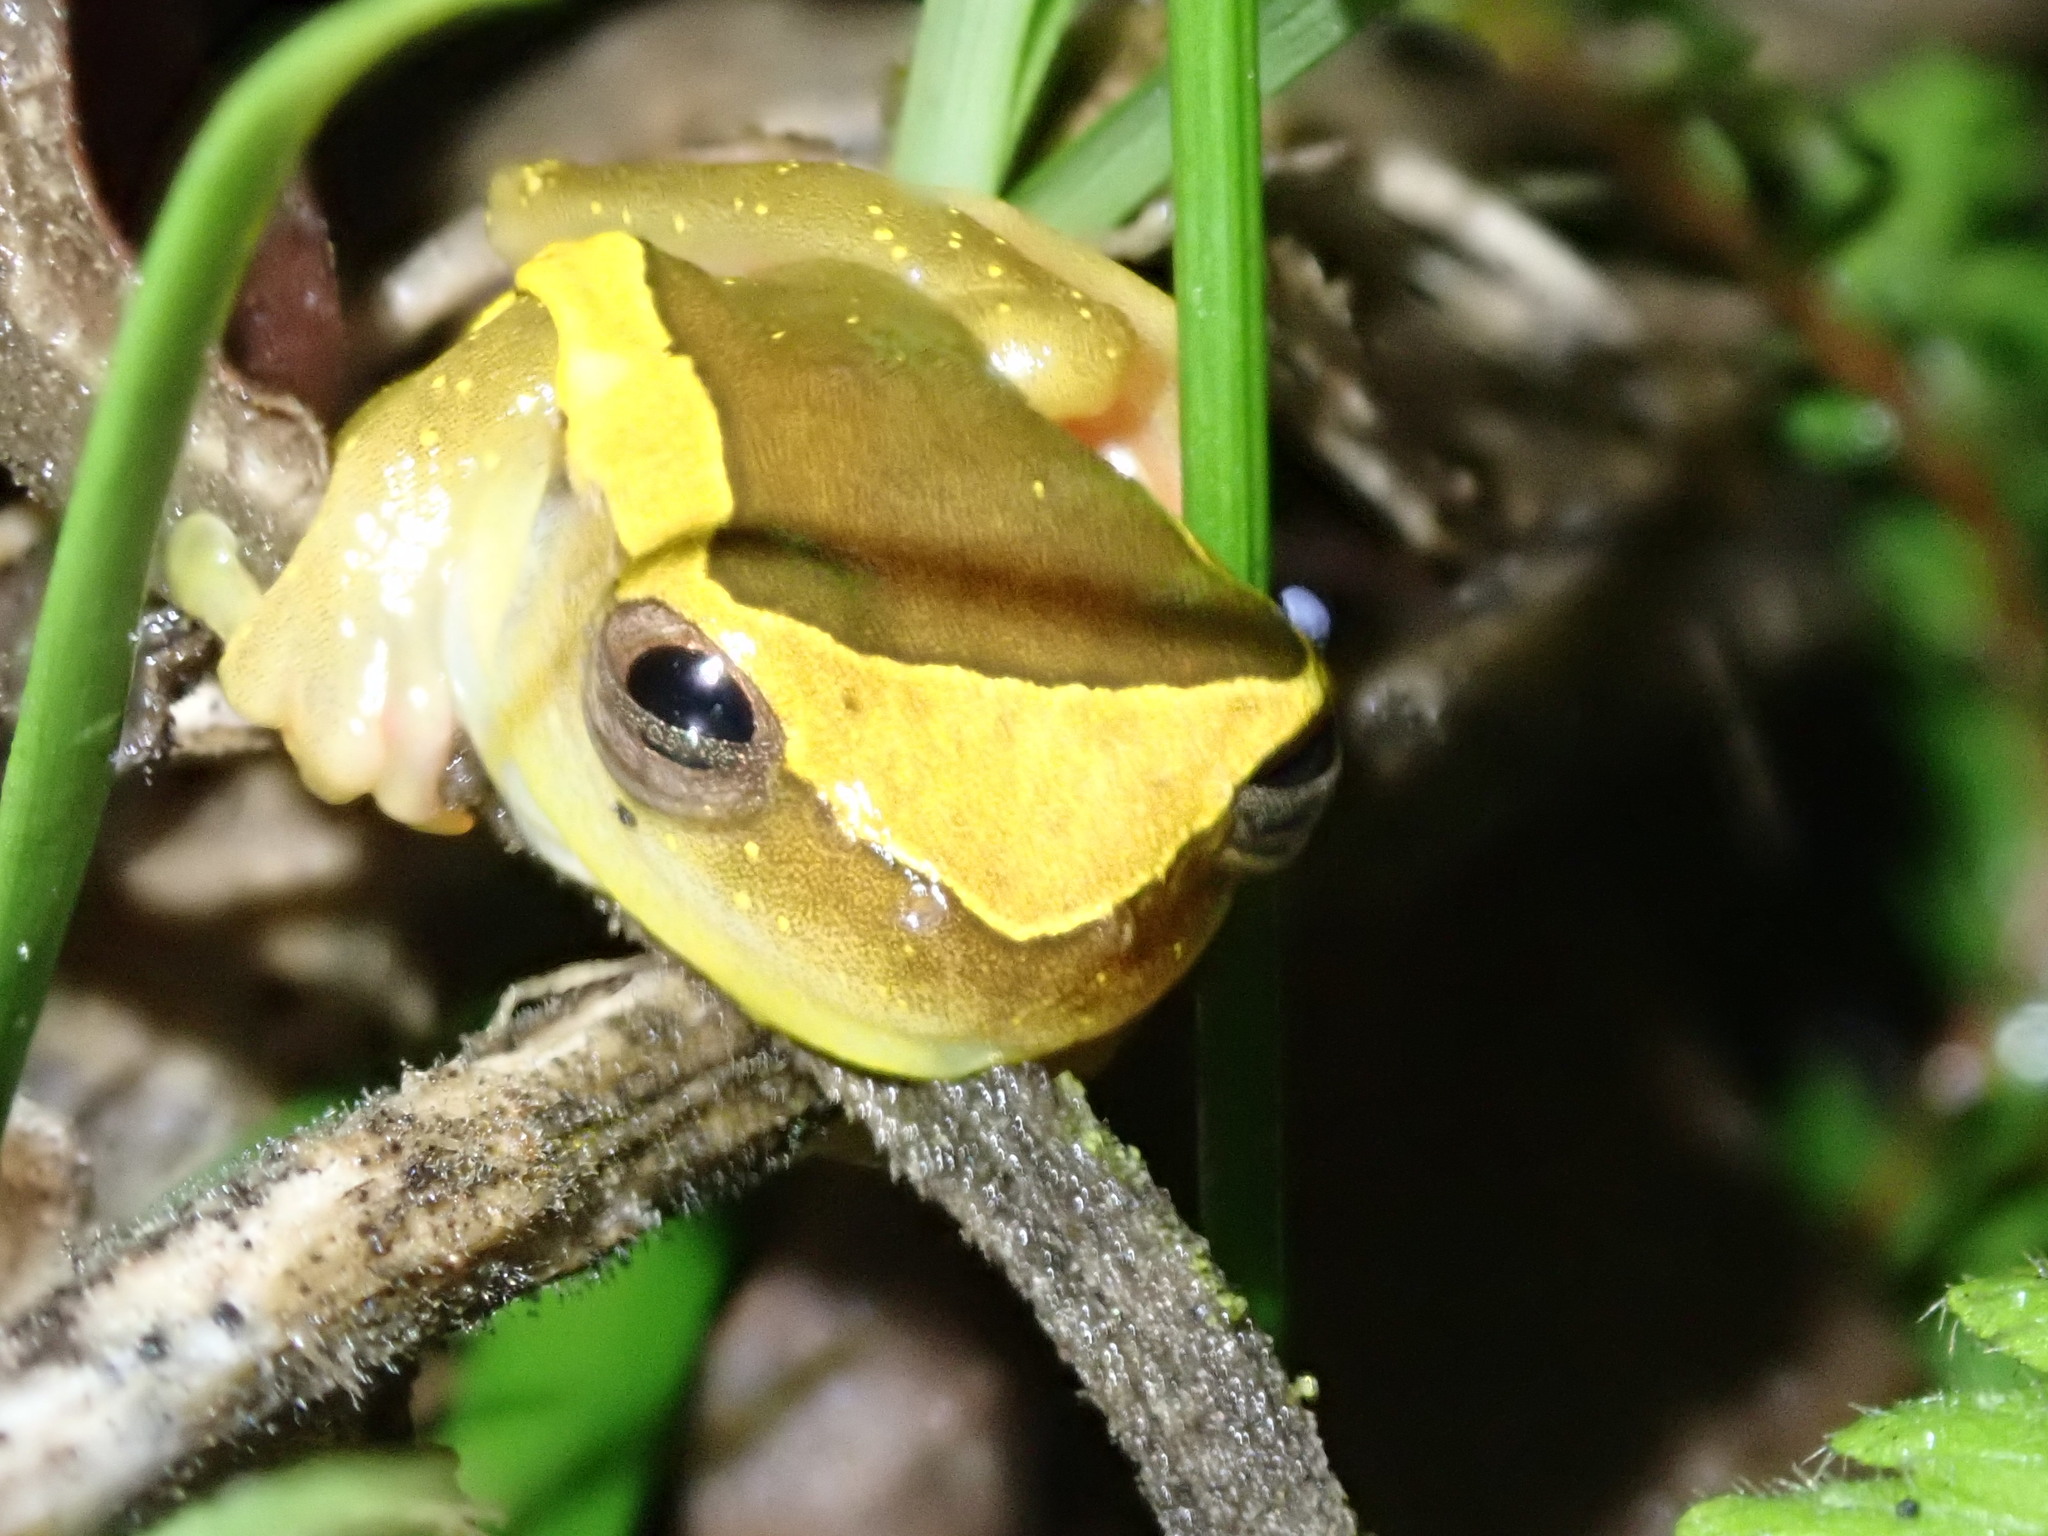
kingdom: Animalia
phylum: Chordata
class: Amphibia
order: Anura
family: Hylidae
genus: Dendropsophus
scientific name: Dendropsophus bifurcus
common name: Two-lined treefrog
